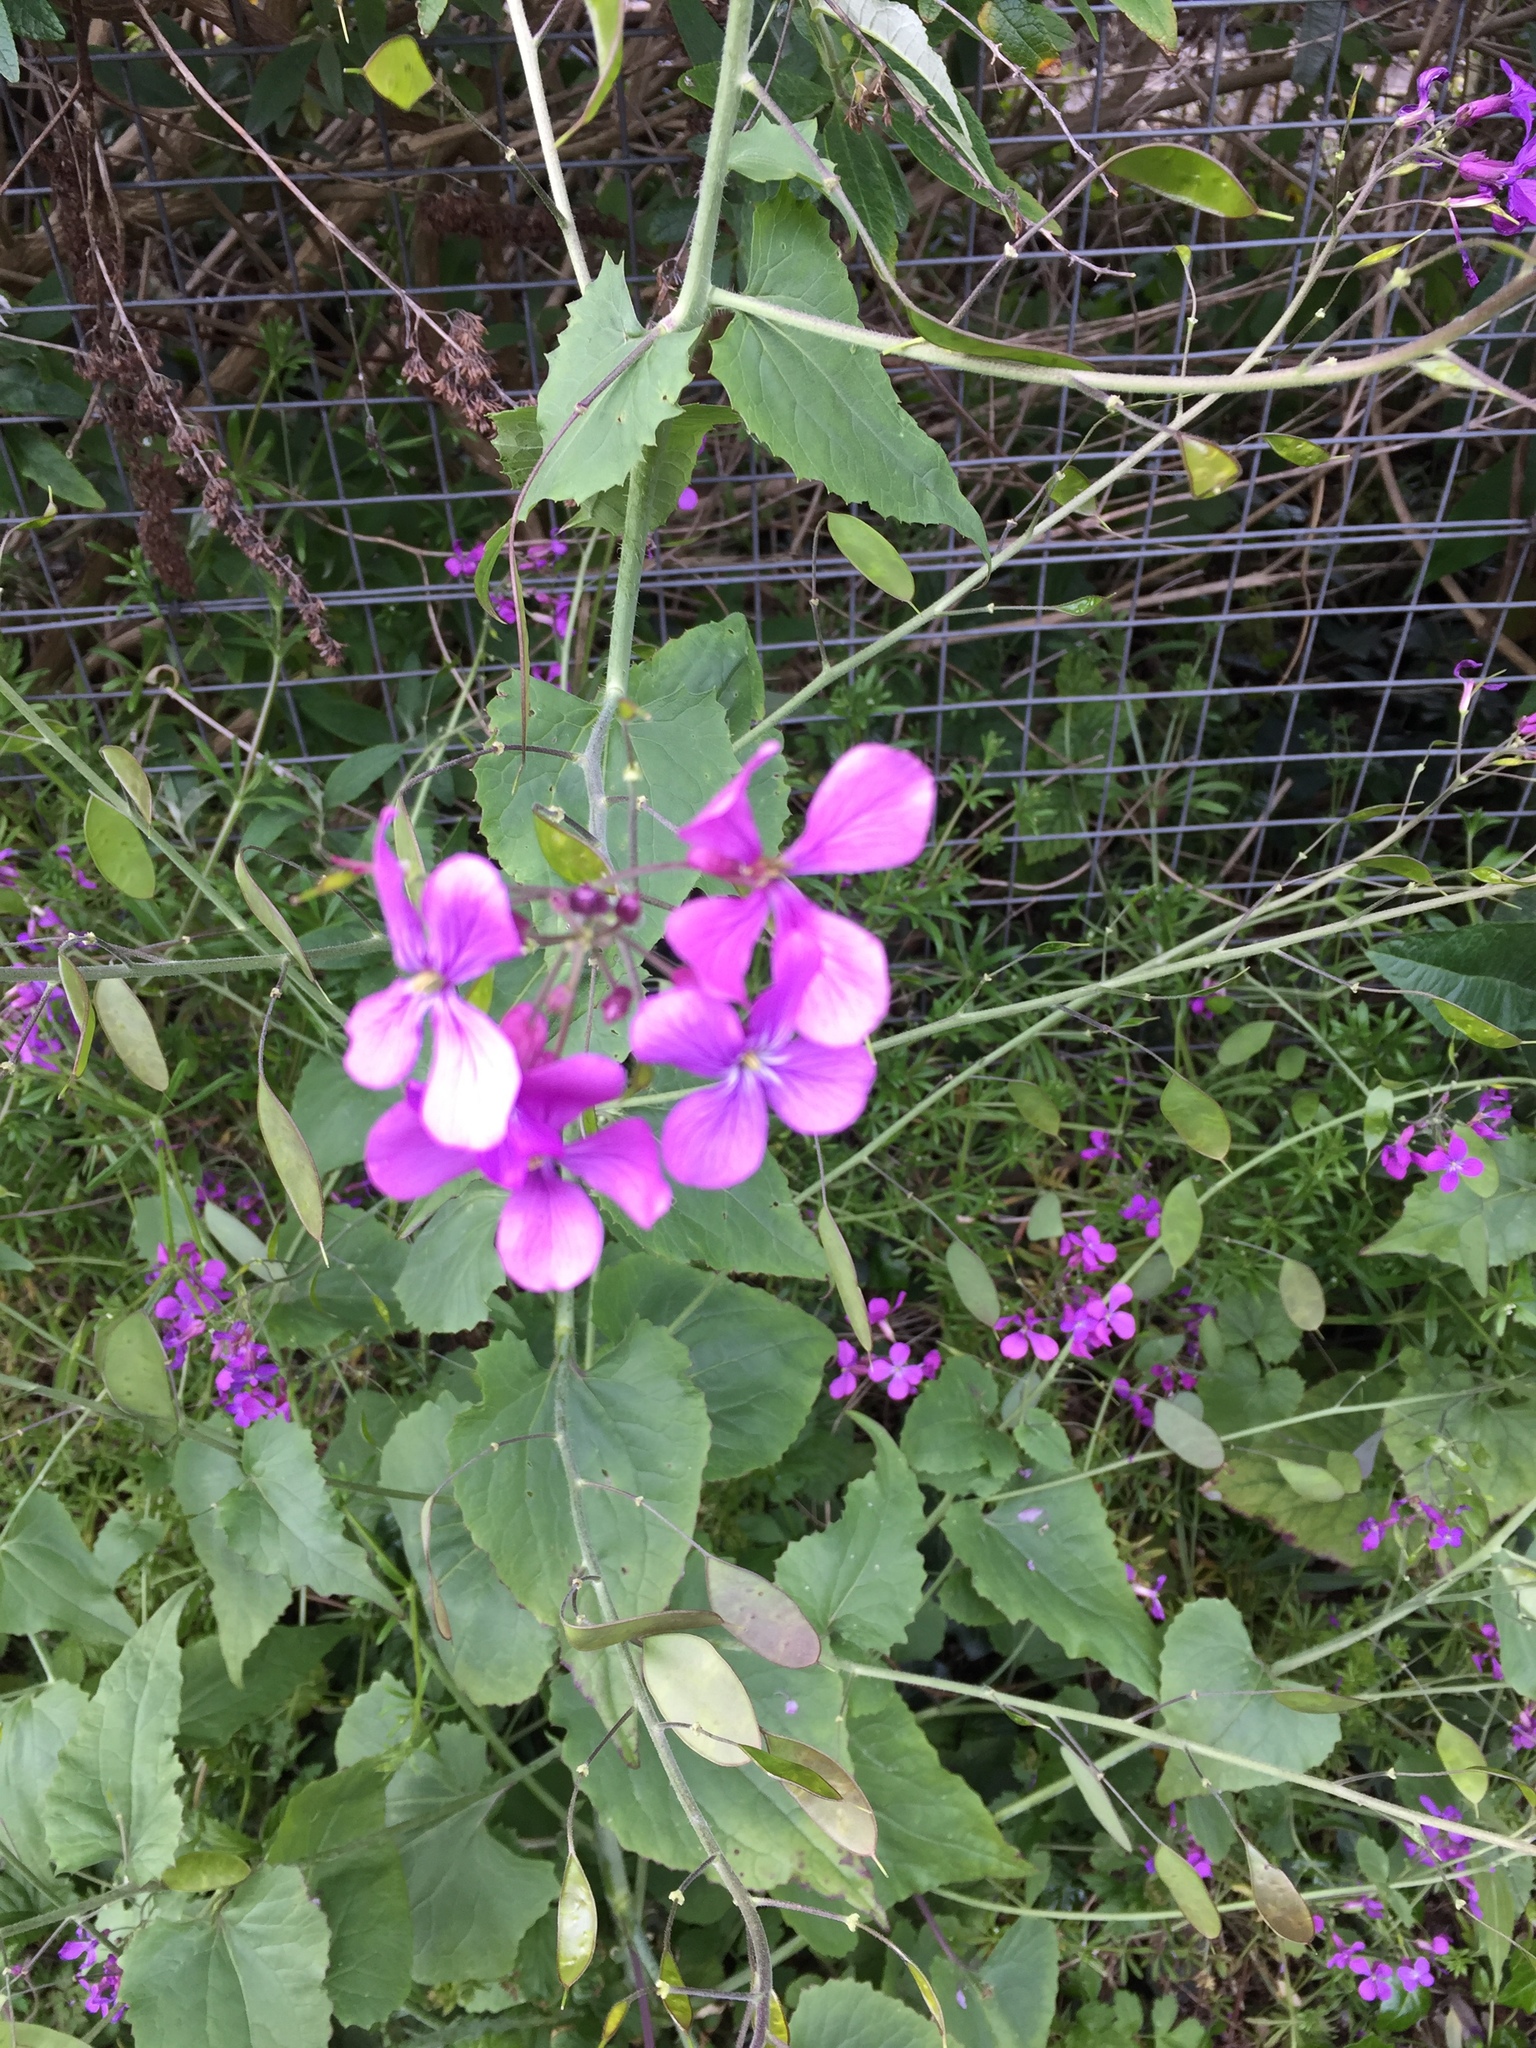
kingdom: Plantae
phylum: Tracheophyta
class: Magnoliopsida
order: Brassicales
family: Brassicaceae
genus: Lunaria
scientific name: Lunaria annua
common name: Honesty
